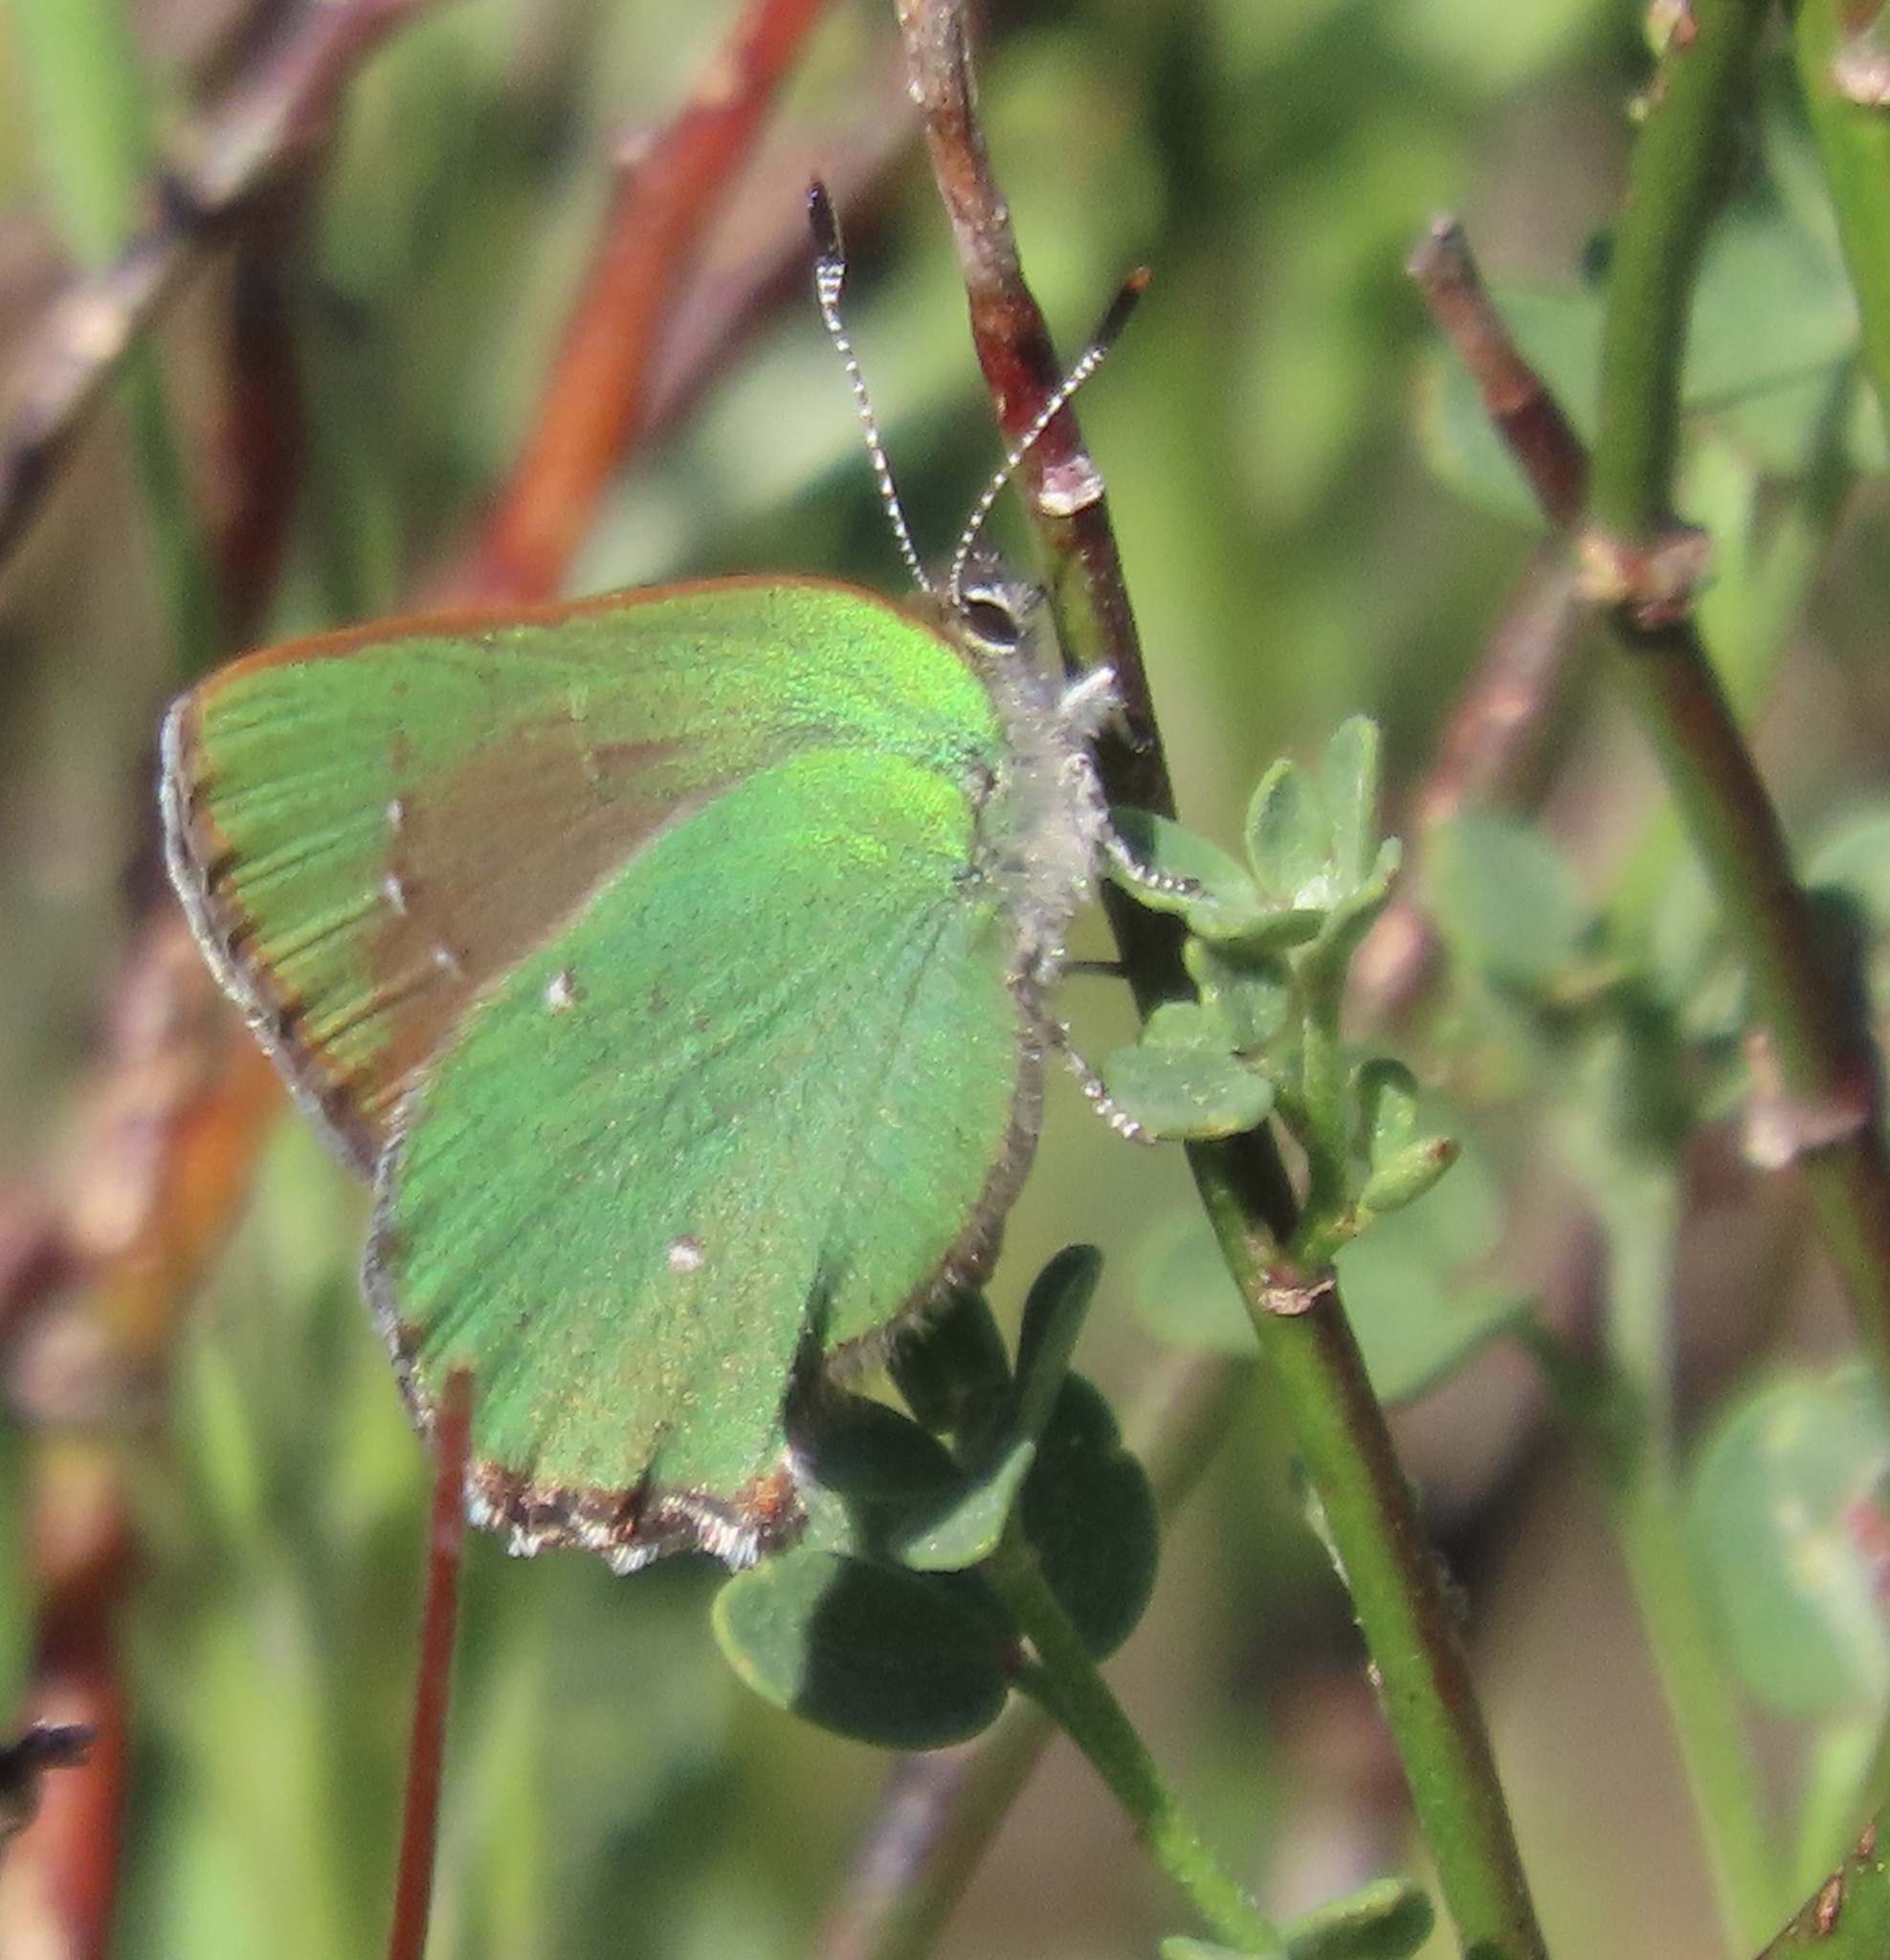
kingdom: Animalia
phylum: Arthropoda
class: Insecta
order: Lepidoptera
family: Lycaenidae
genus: Callophrys
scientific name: Callophrys dumetorum
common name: Bramble hairstreak
